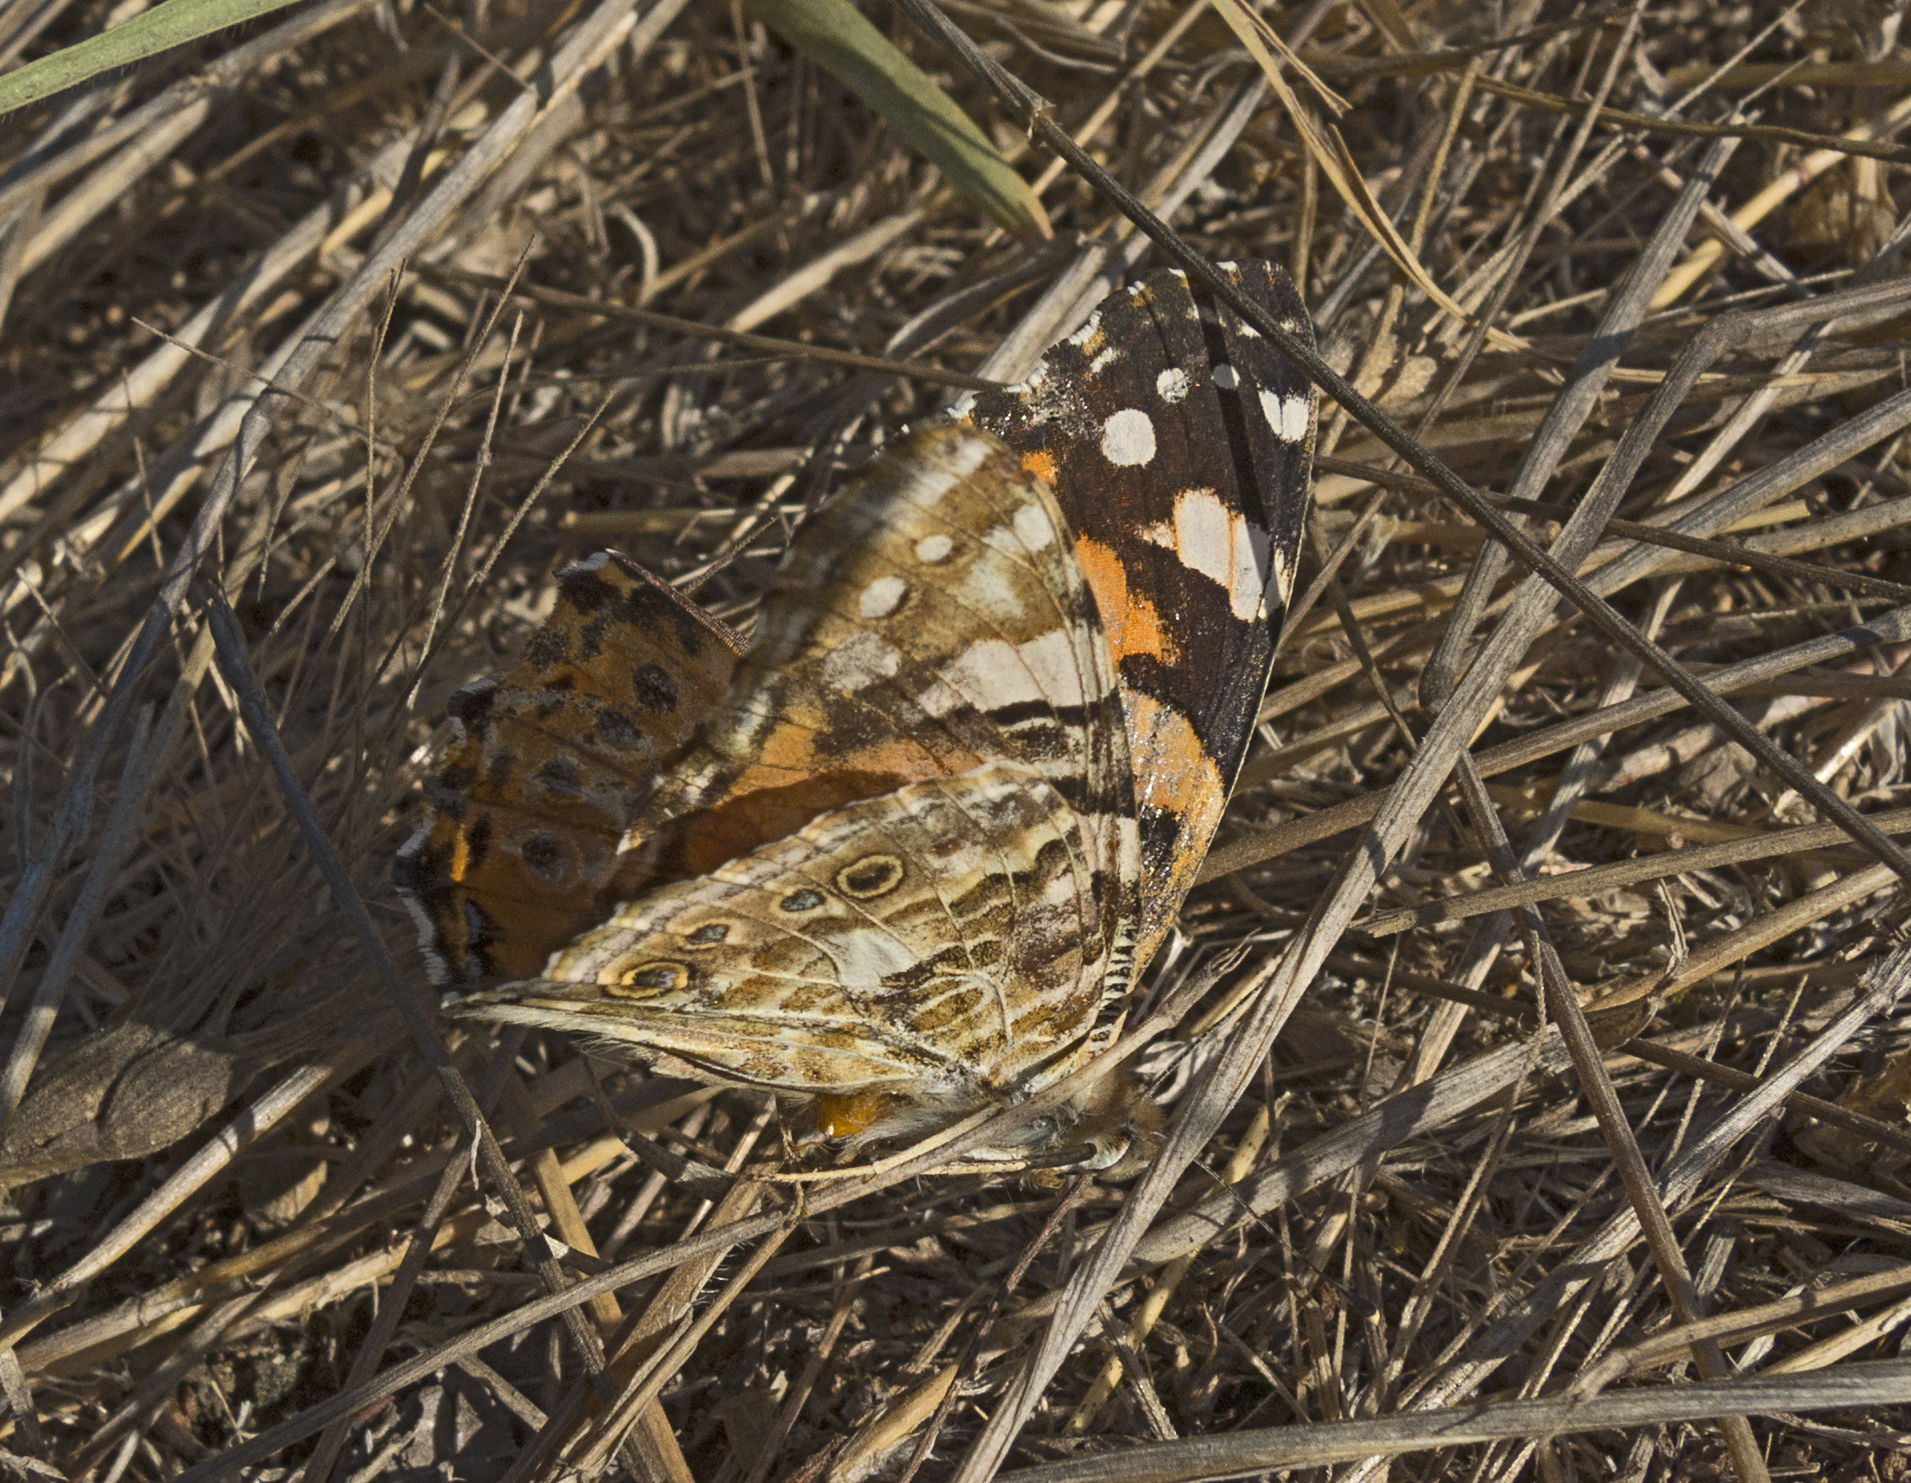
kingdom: Animalia
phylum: Arthropoda
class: Insecta
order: Lepidoptera
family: Nymphalidae
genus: Vanessa
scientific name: Vanessa cardui
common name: Painted lady
